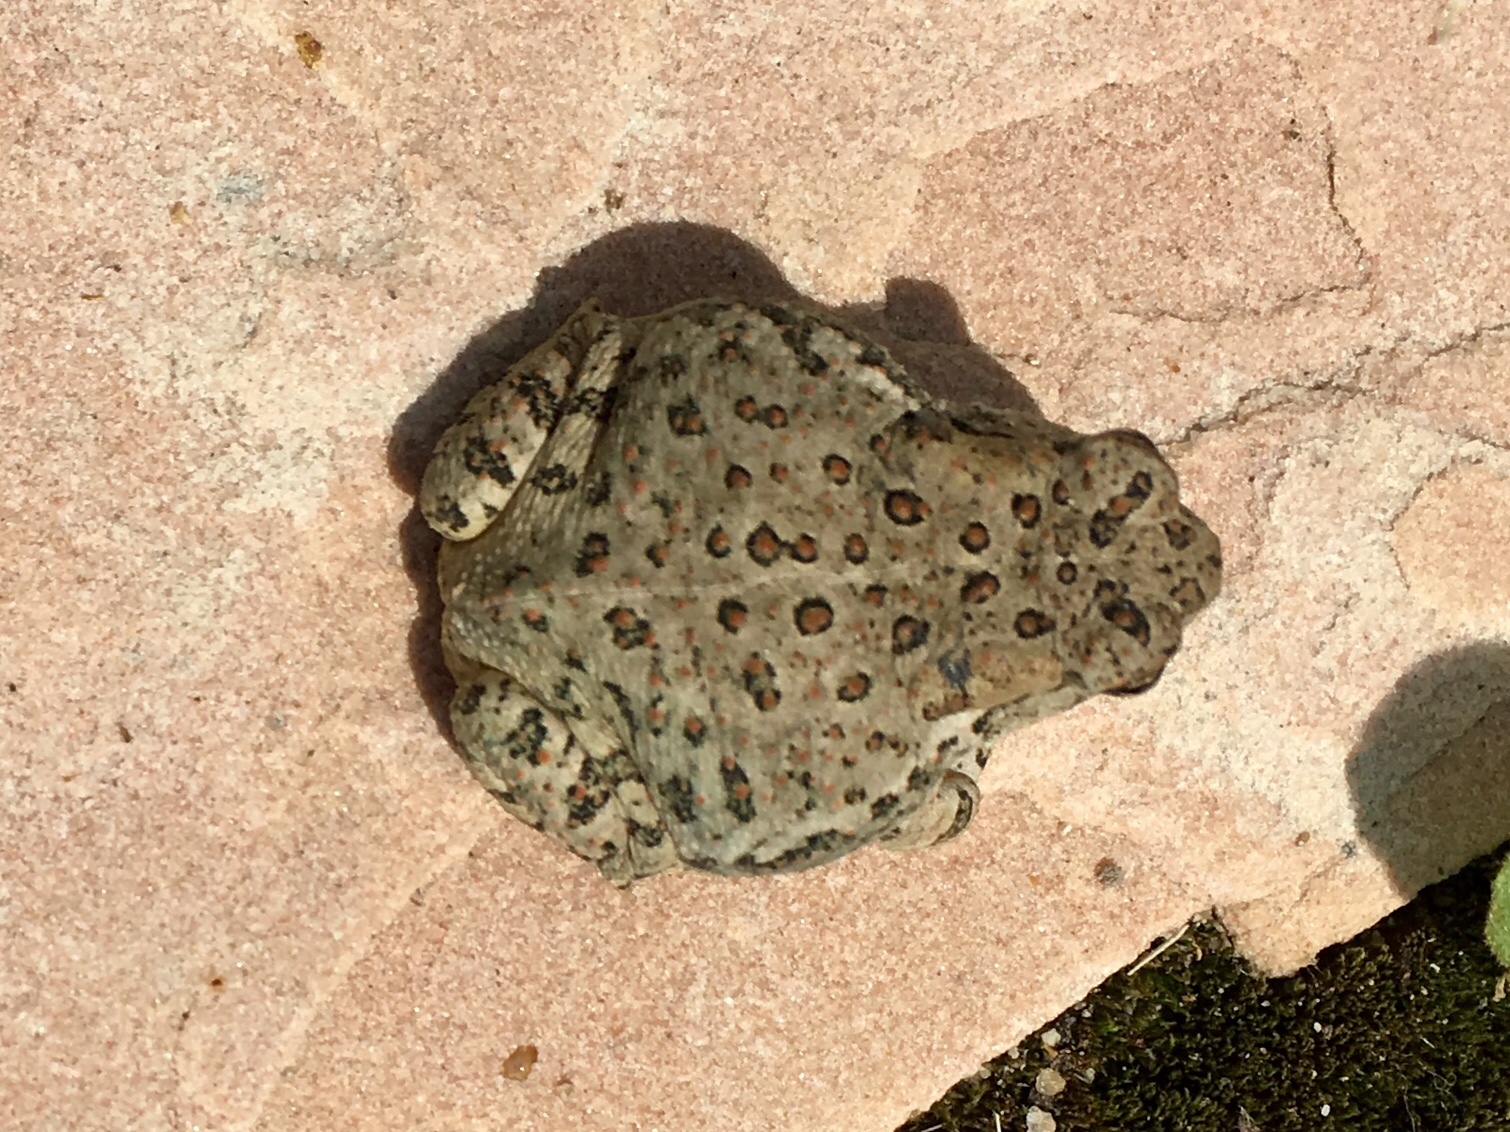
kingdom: Animalia
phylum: Chordata
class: Amphibia
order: Anura
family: Bufonidae
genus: Anaxyrus
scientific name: Anaxyrus woodhousii
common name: Woodhouse's toad
